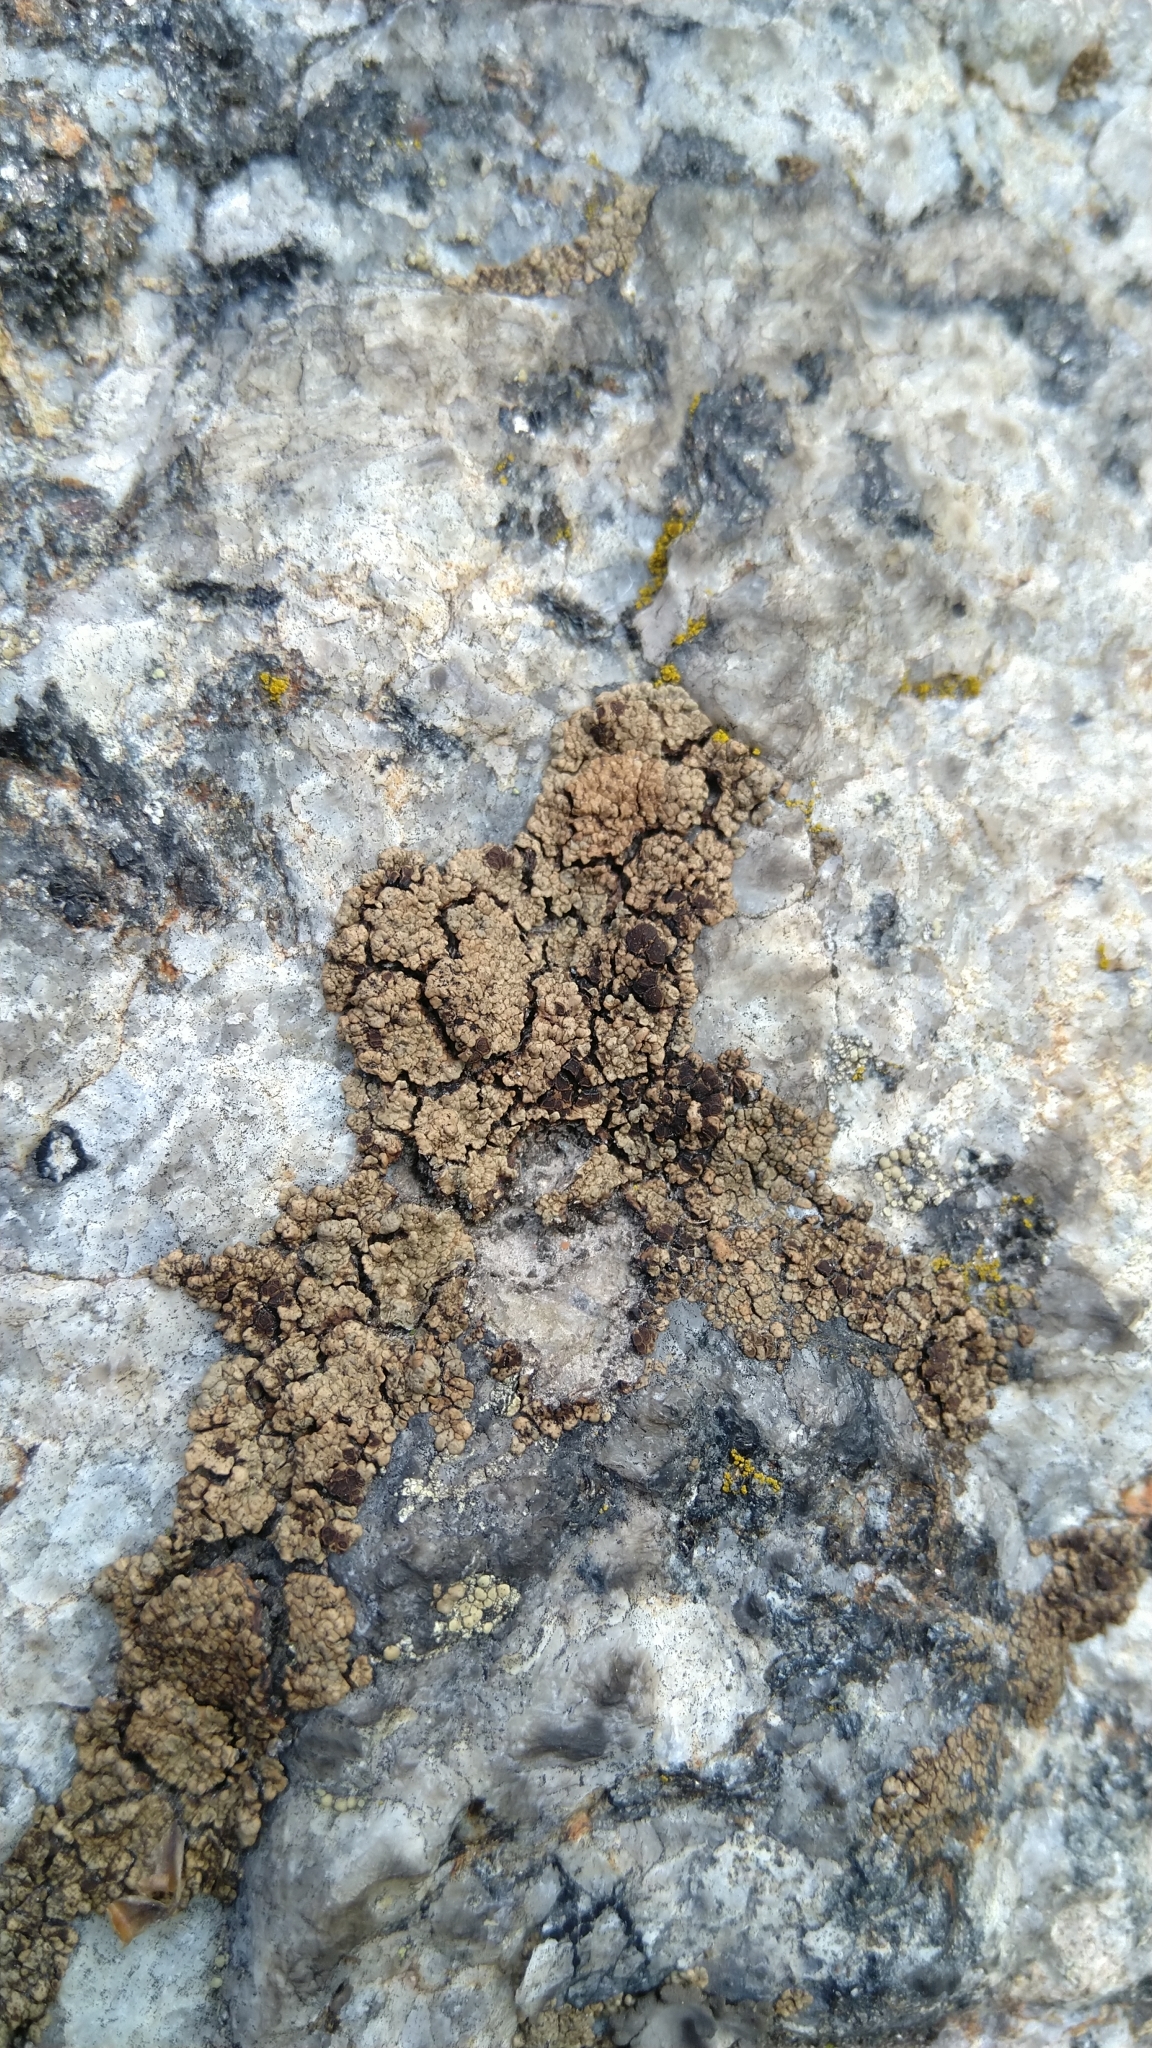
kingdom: Fungi
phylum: Ascomycota
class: Lecanoromycetes
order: Lecanorales
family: Parmeliaceae
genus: Protoparmelia
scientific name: Protoparmelia badia
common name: Chocolate rim lichen
